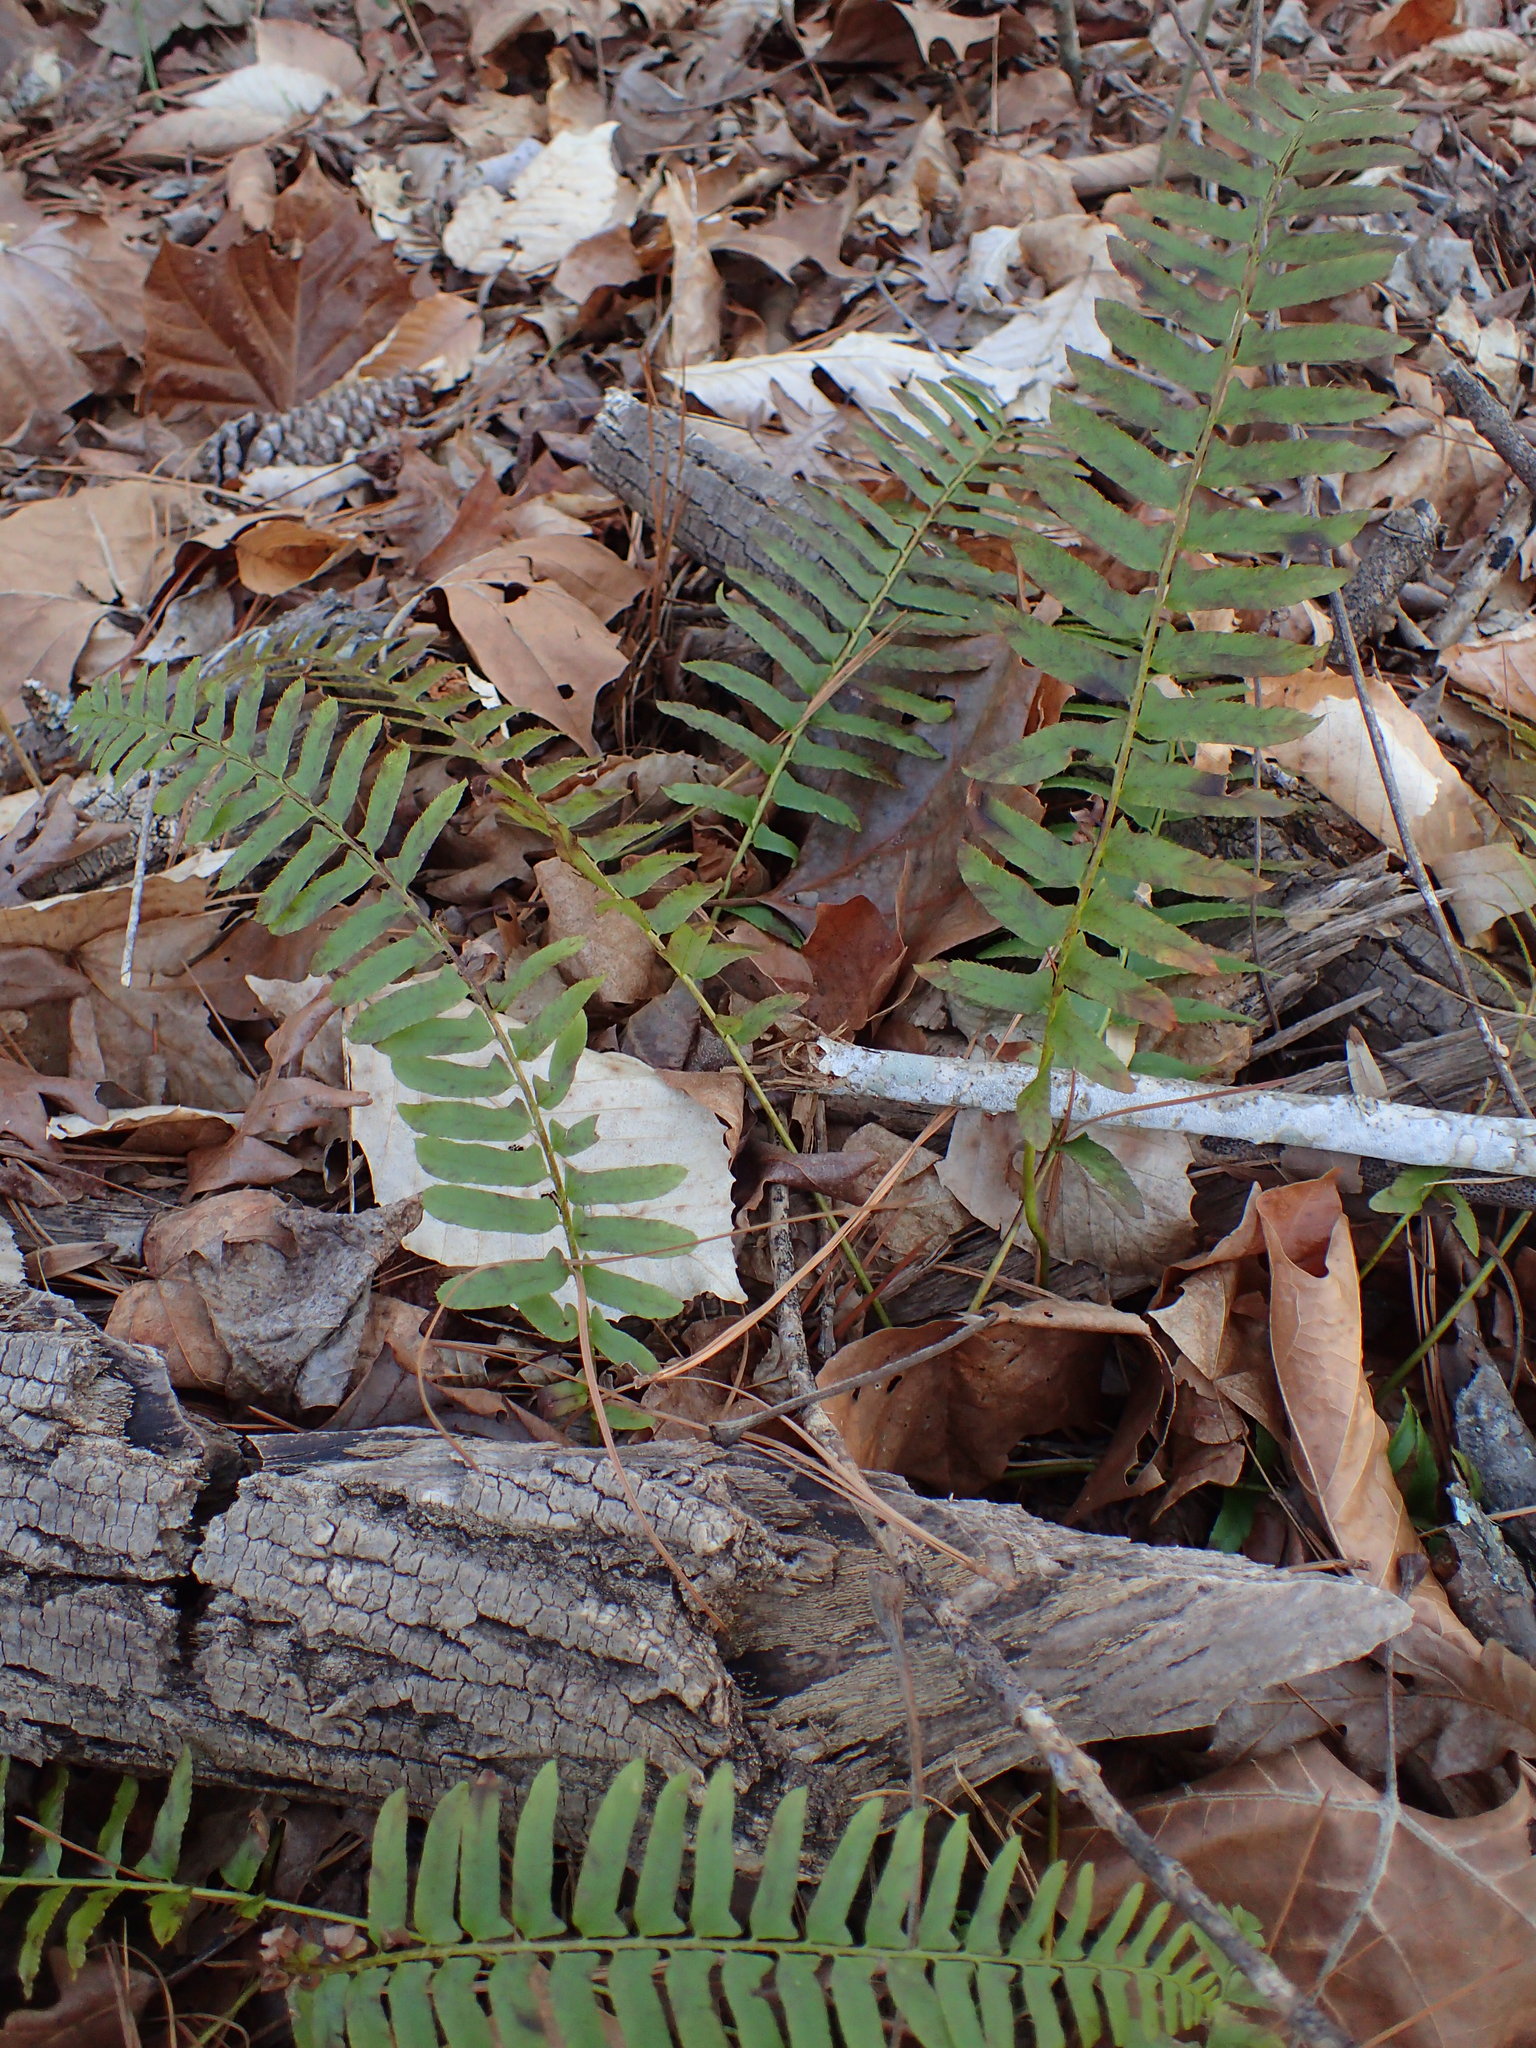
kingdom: Plantae
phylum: Tracheophyta
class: Polypodiopsida
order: Polypodiales
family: Dryopteridaceae
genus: Polystichum
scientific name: Polystichum acrostichoides
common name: Christmas fern
